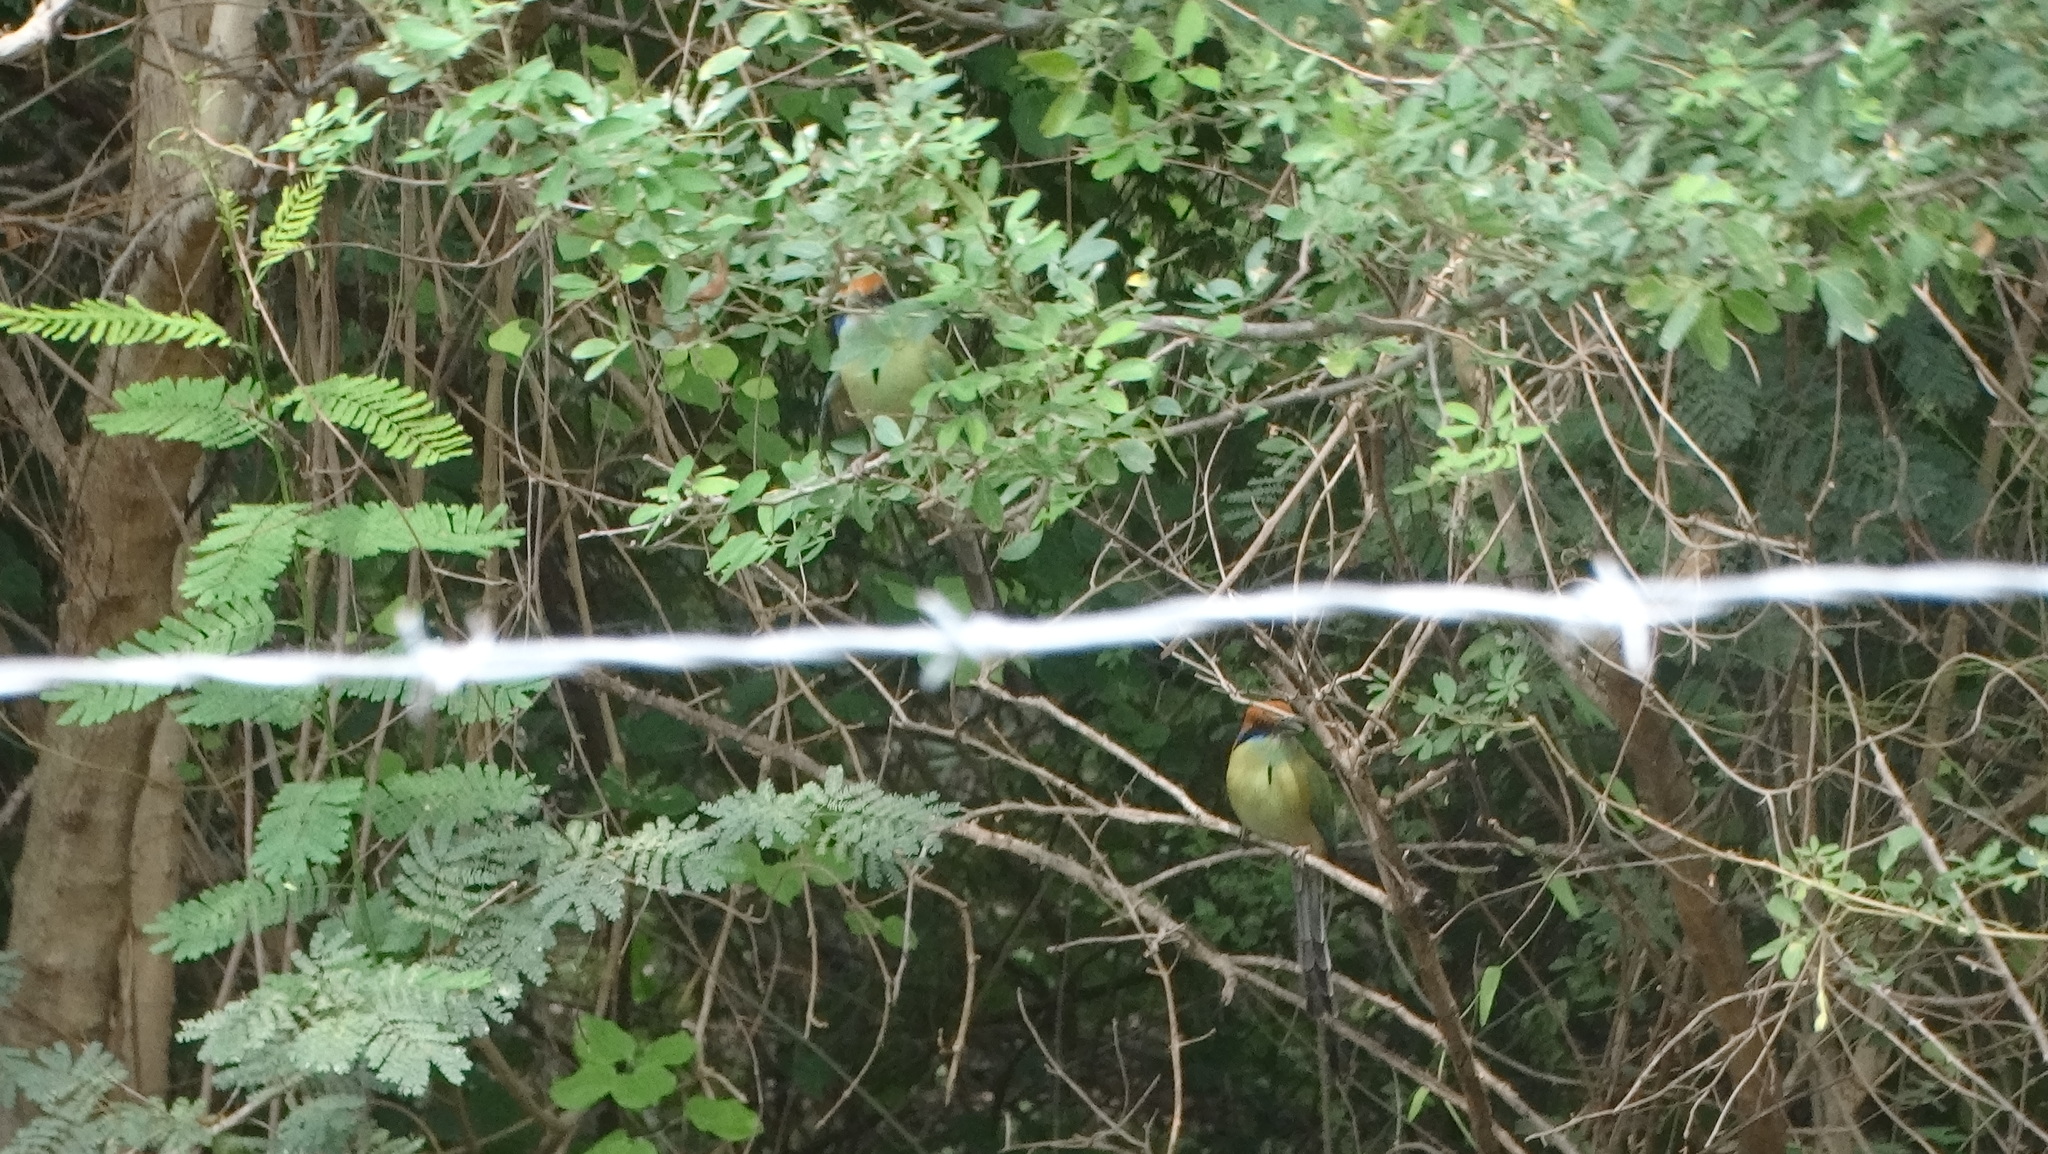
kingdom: Animalia
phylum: Chordata
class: Aves
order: Coraciiformes
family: Momotidae
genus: Momotus
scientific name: Momotus mexicanus
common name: Russet-crowned motmot
